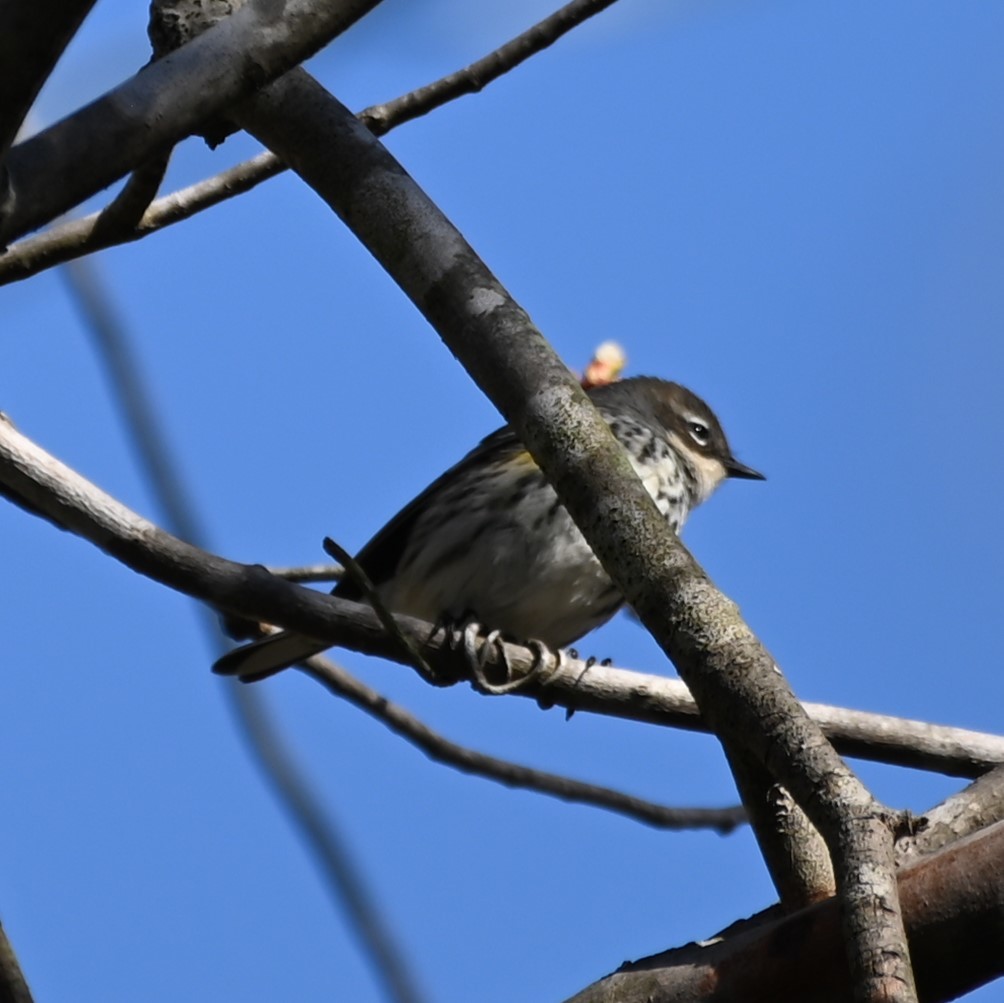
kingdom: Animalia
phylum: Chordata
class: Aves
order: Passeriformes
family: Parulidae
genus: Setophaga
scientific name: Setophaga coronata
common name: Myrtle warbler
